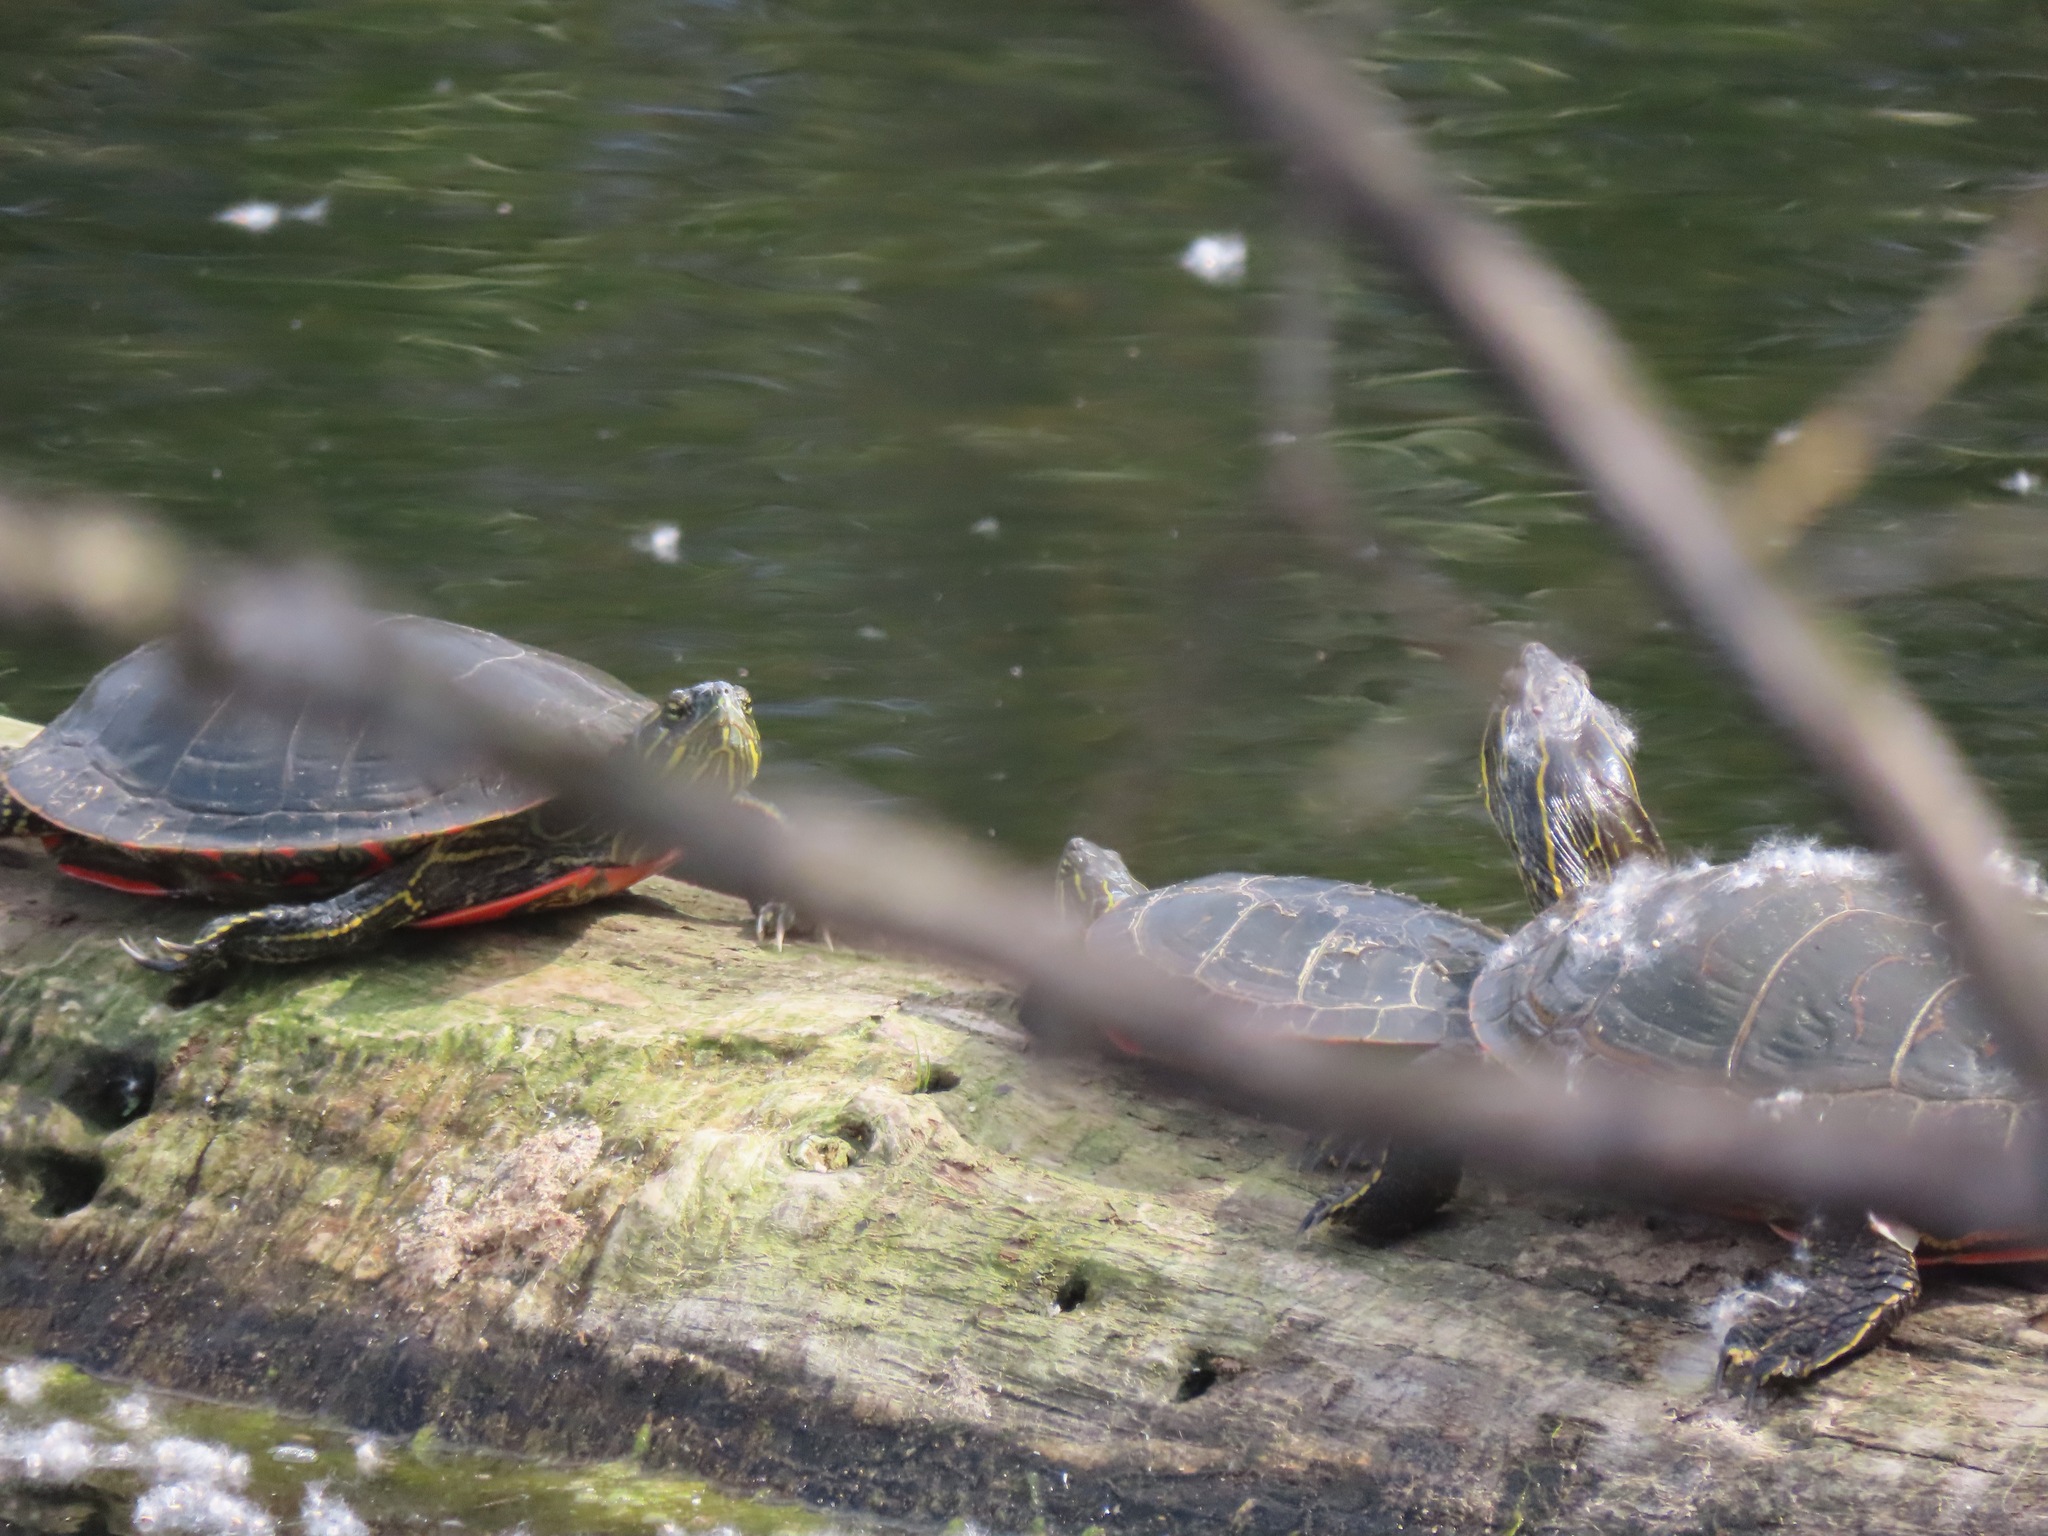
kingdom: Animalia
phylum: Chordata
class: Testudines
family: Emydidae
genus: Chrysemys
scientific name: Chrysemys picta
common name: Painted turtle
